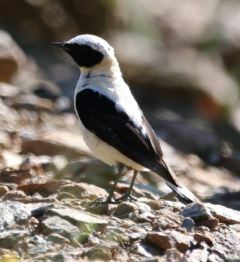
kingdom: Animalia
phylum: Chordata
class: Aves
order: Passeriformes
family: Muscicapidae
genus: Oenanthe
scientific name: Oenanthe hispanica
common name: Black-eared wheatear
